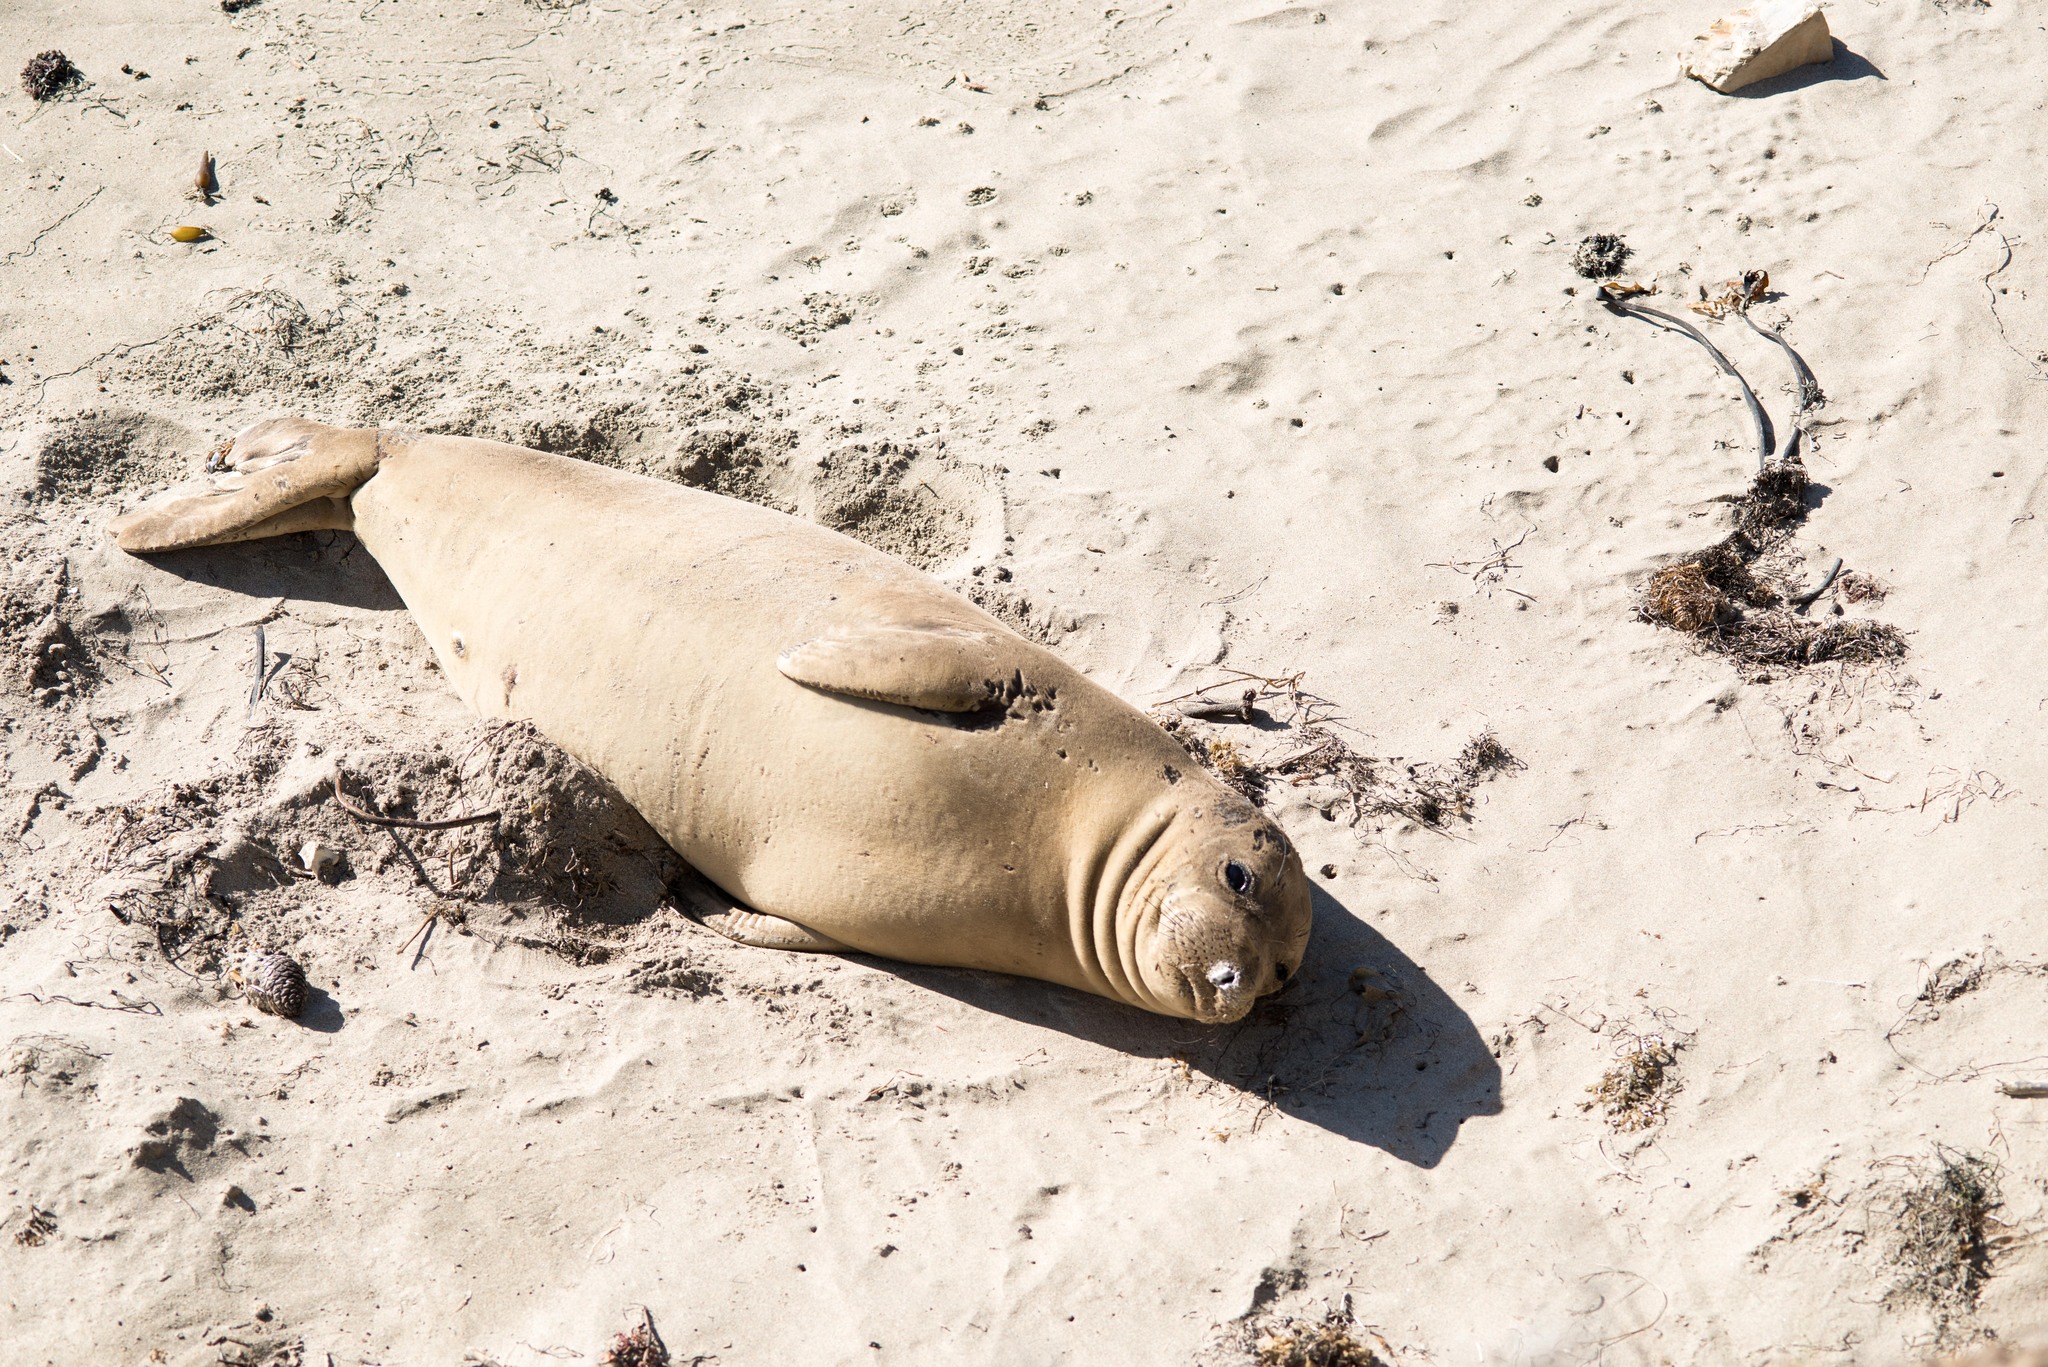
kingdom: Animalia
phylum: Chordata
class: Mammalia
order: Carnivora
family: Phocidae
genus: Mirounga
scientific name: Mirounga angustirostris
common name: Northern elephant seal
